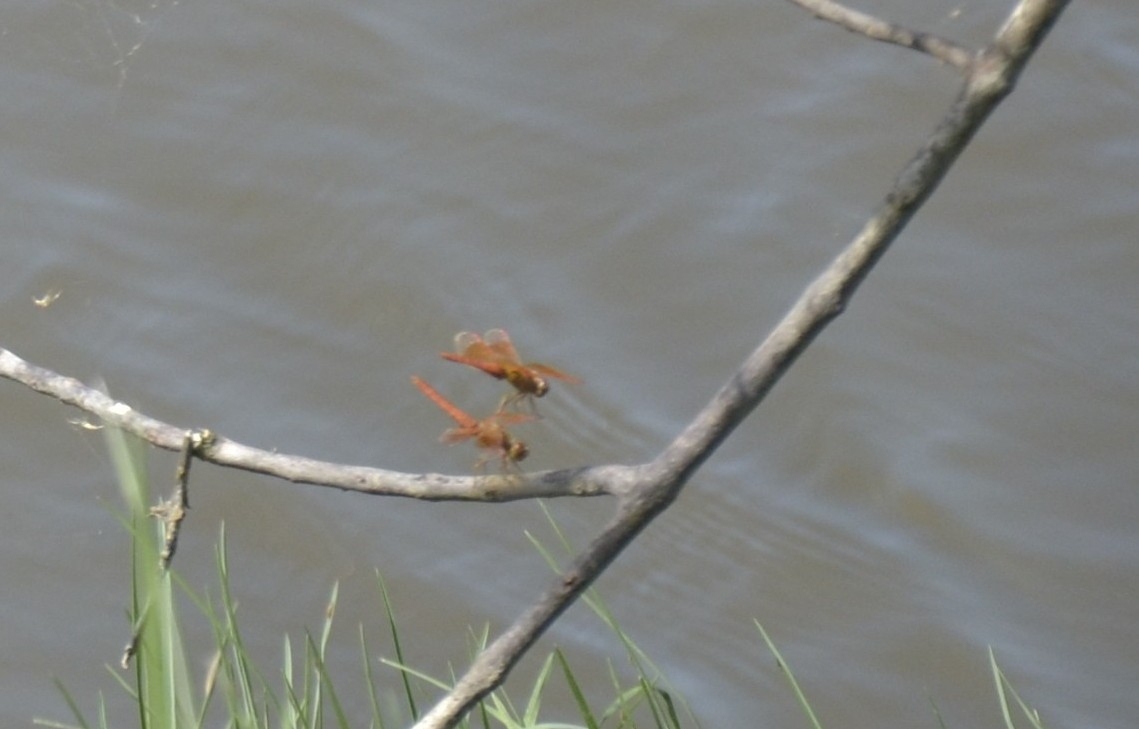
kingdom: Animalia
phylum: Arthropoda
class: Insecta
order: Odonata
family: Libellulidae
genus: Brachythemis
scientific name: Brachythemis contaminata
